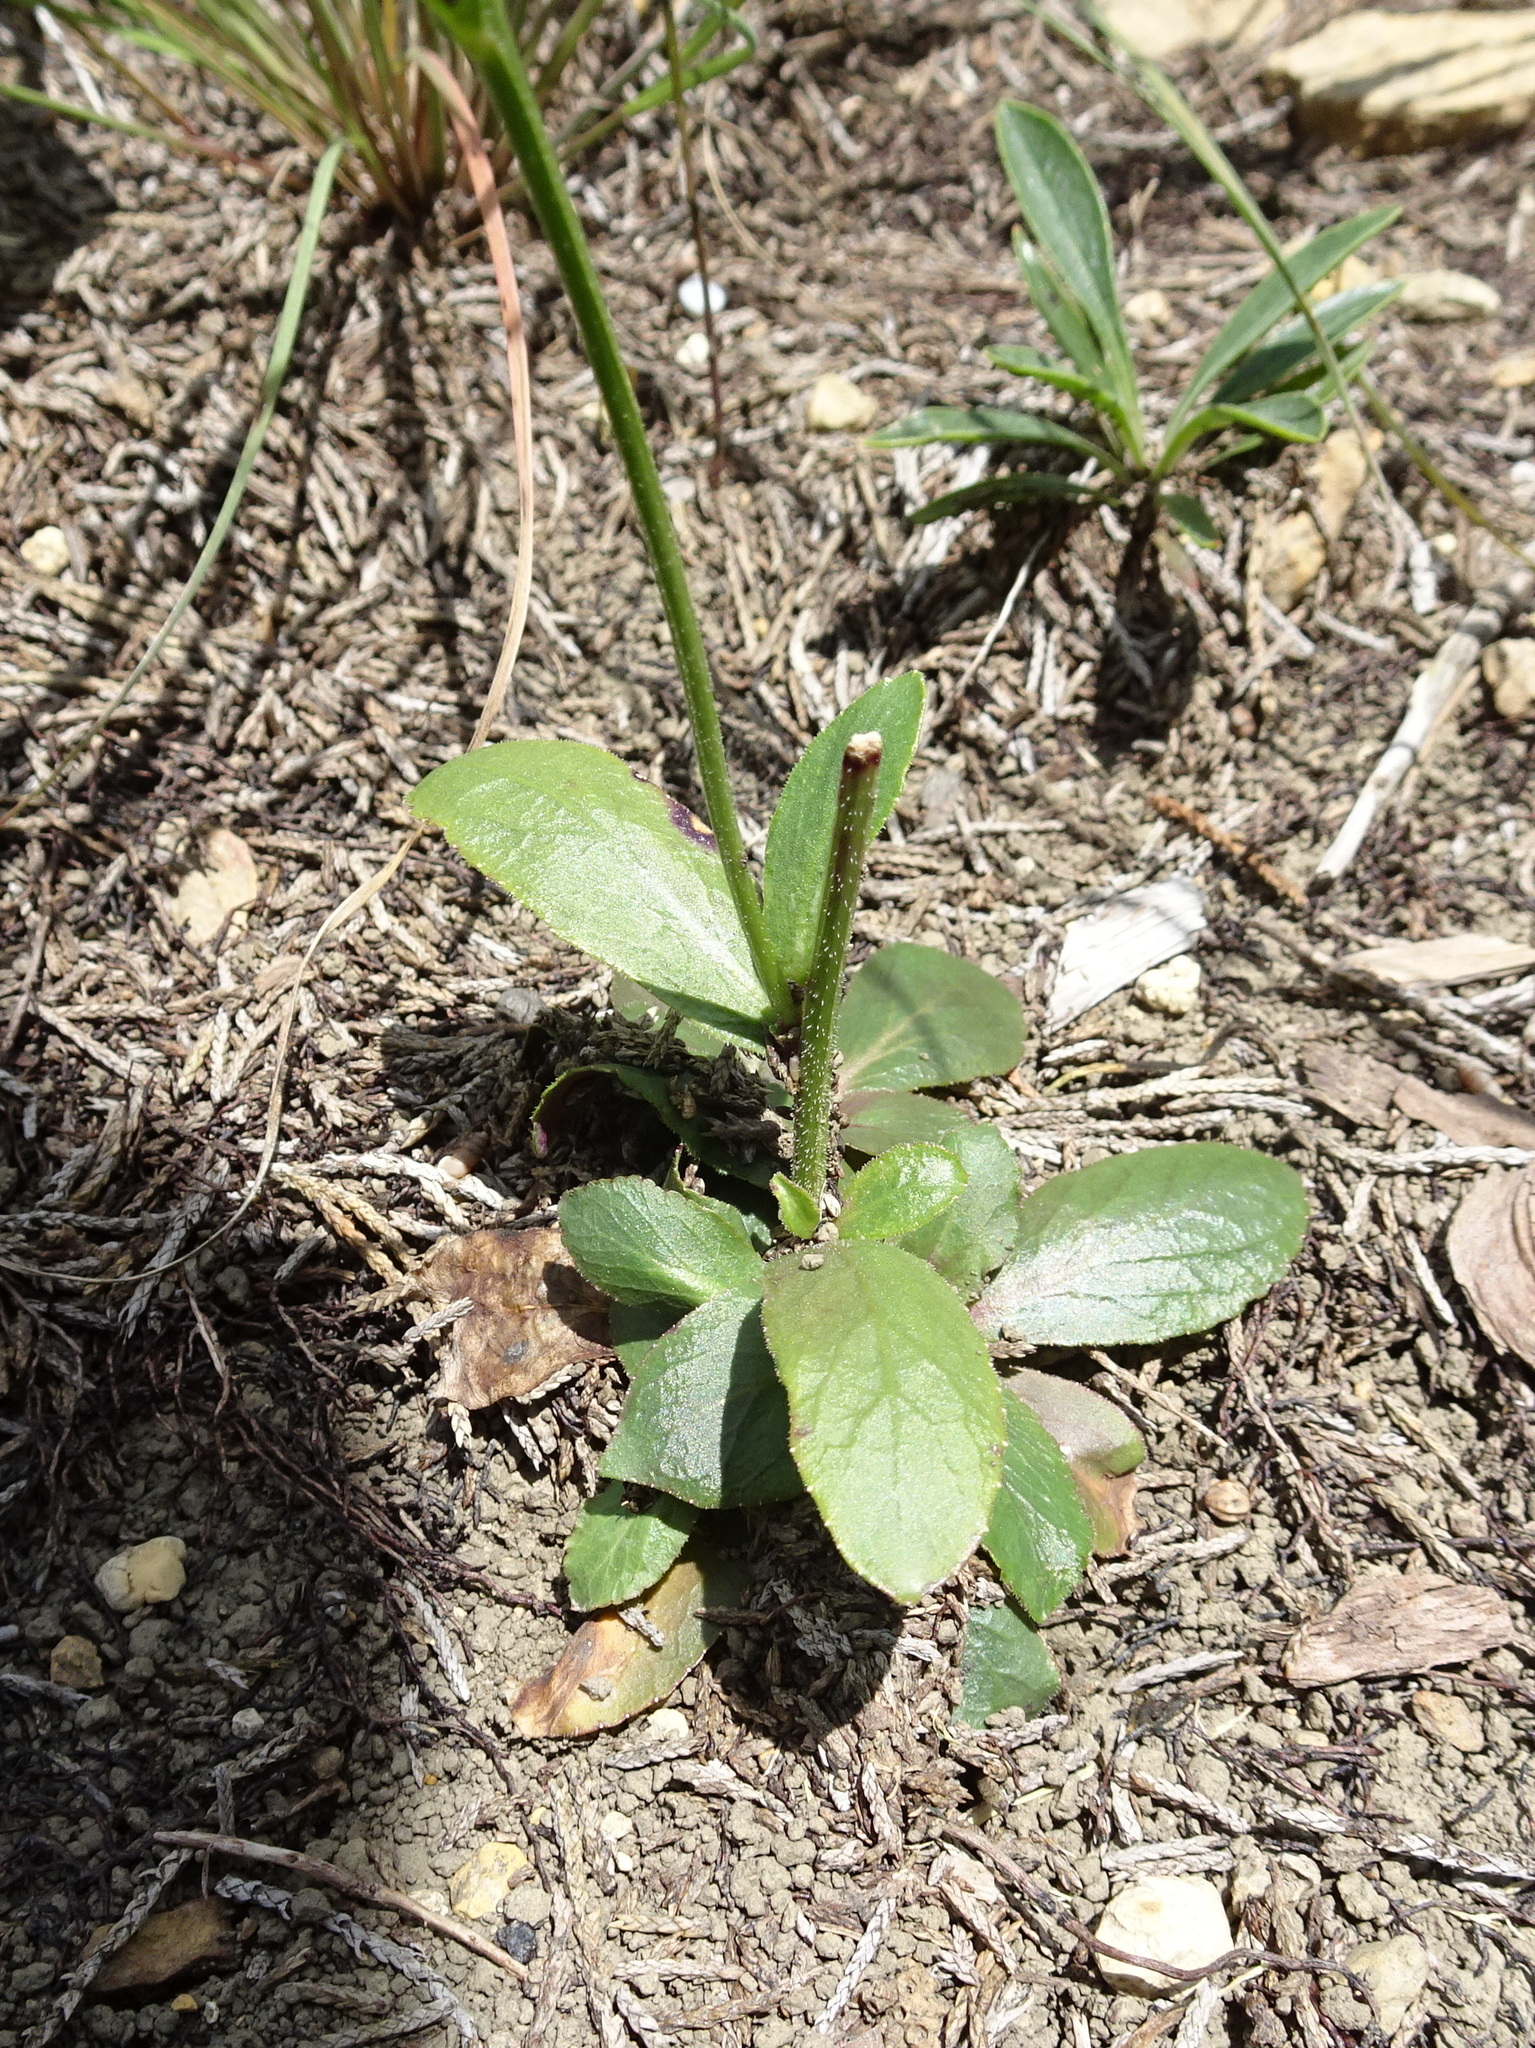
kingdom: Plantae
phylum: Tracheophyta
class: Magnoliopsida
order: Asterales
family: Campanulaceae
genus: Lobelia
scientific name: Lobelia spicata
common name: Pale-spike lobelia
